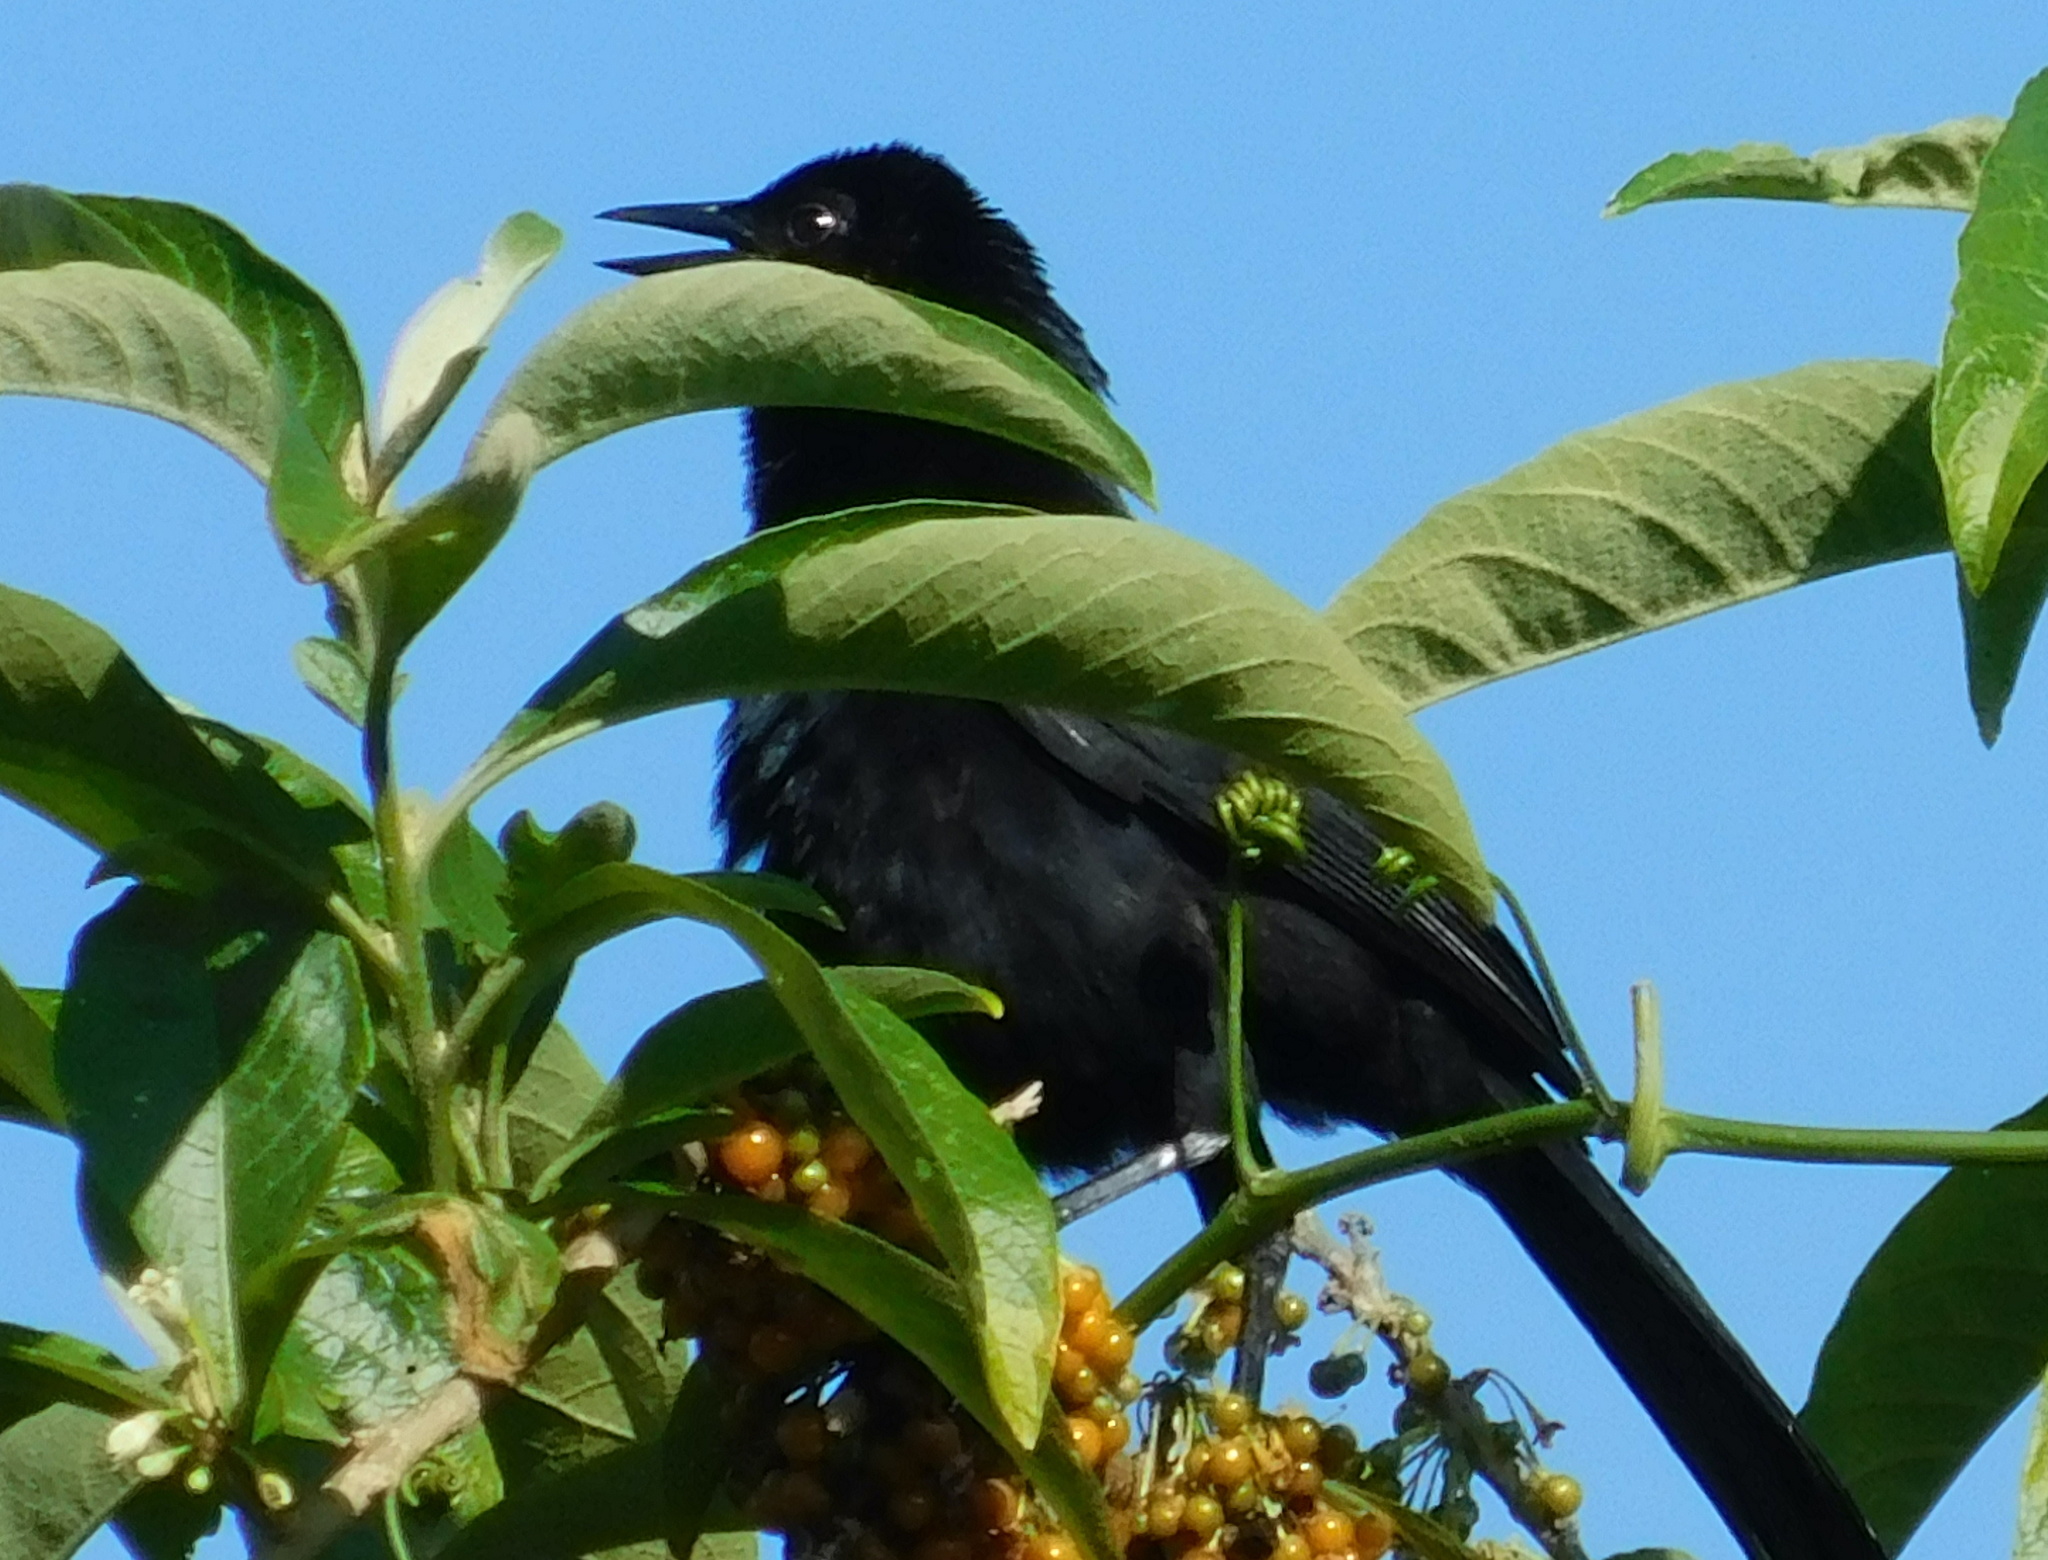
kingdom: Animalia
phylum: Chordata
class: Aves
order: Passeriformes
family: Icteridae
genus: Dives
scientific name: Dives dives
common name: Melodious blackbird
